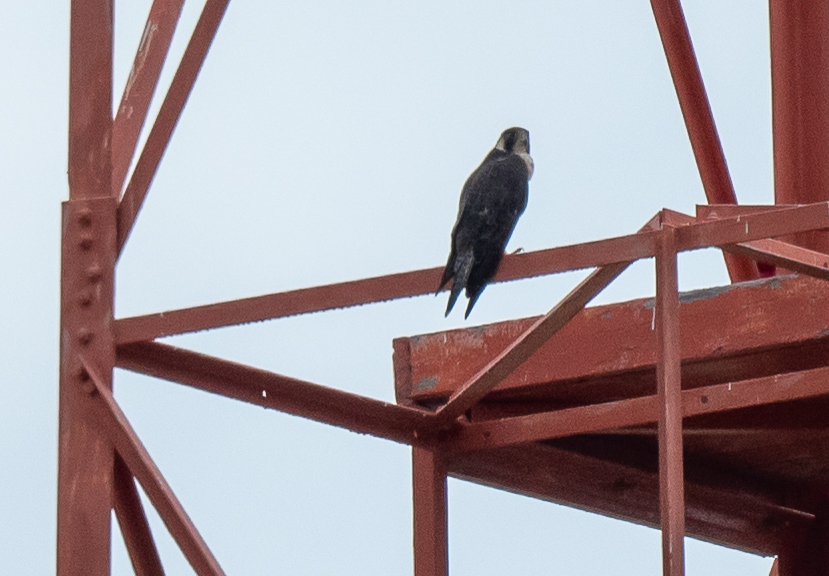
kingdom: Animalia
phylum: Chordata
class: Aves
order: Falconiformes
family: Falconidae
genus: Falco
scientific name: Falco peregrinus
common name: Peregrine falcon
